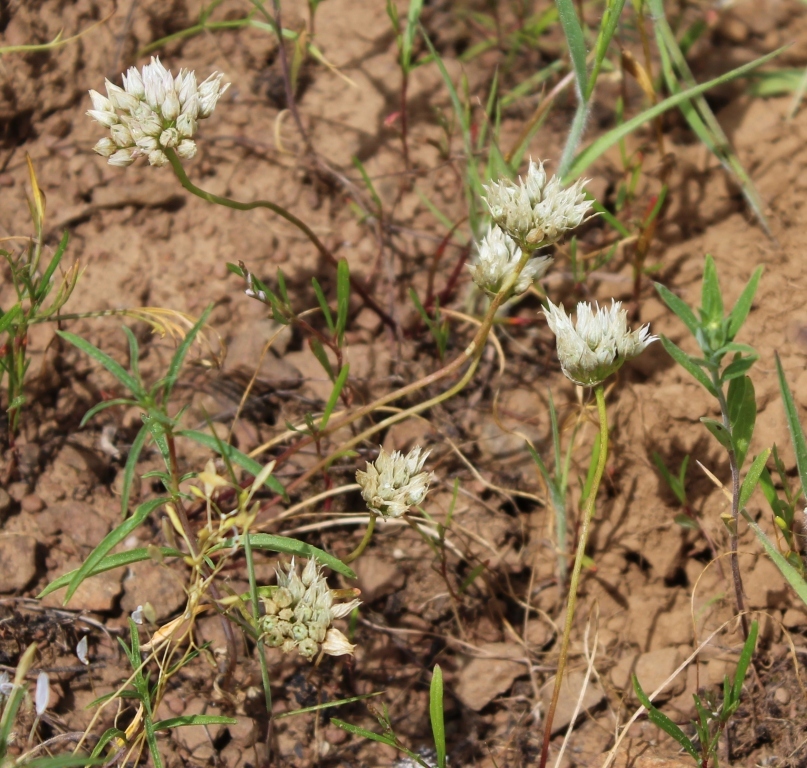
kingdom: Plantae
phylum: Tracheophyta
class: Liliopsida
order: Asparagales
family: Amaryllidaceae
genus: Allium
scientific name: Allium fibrillum
